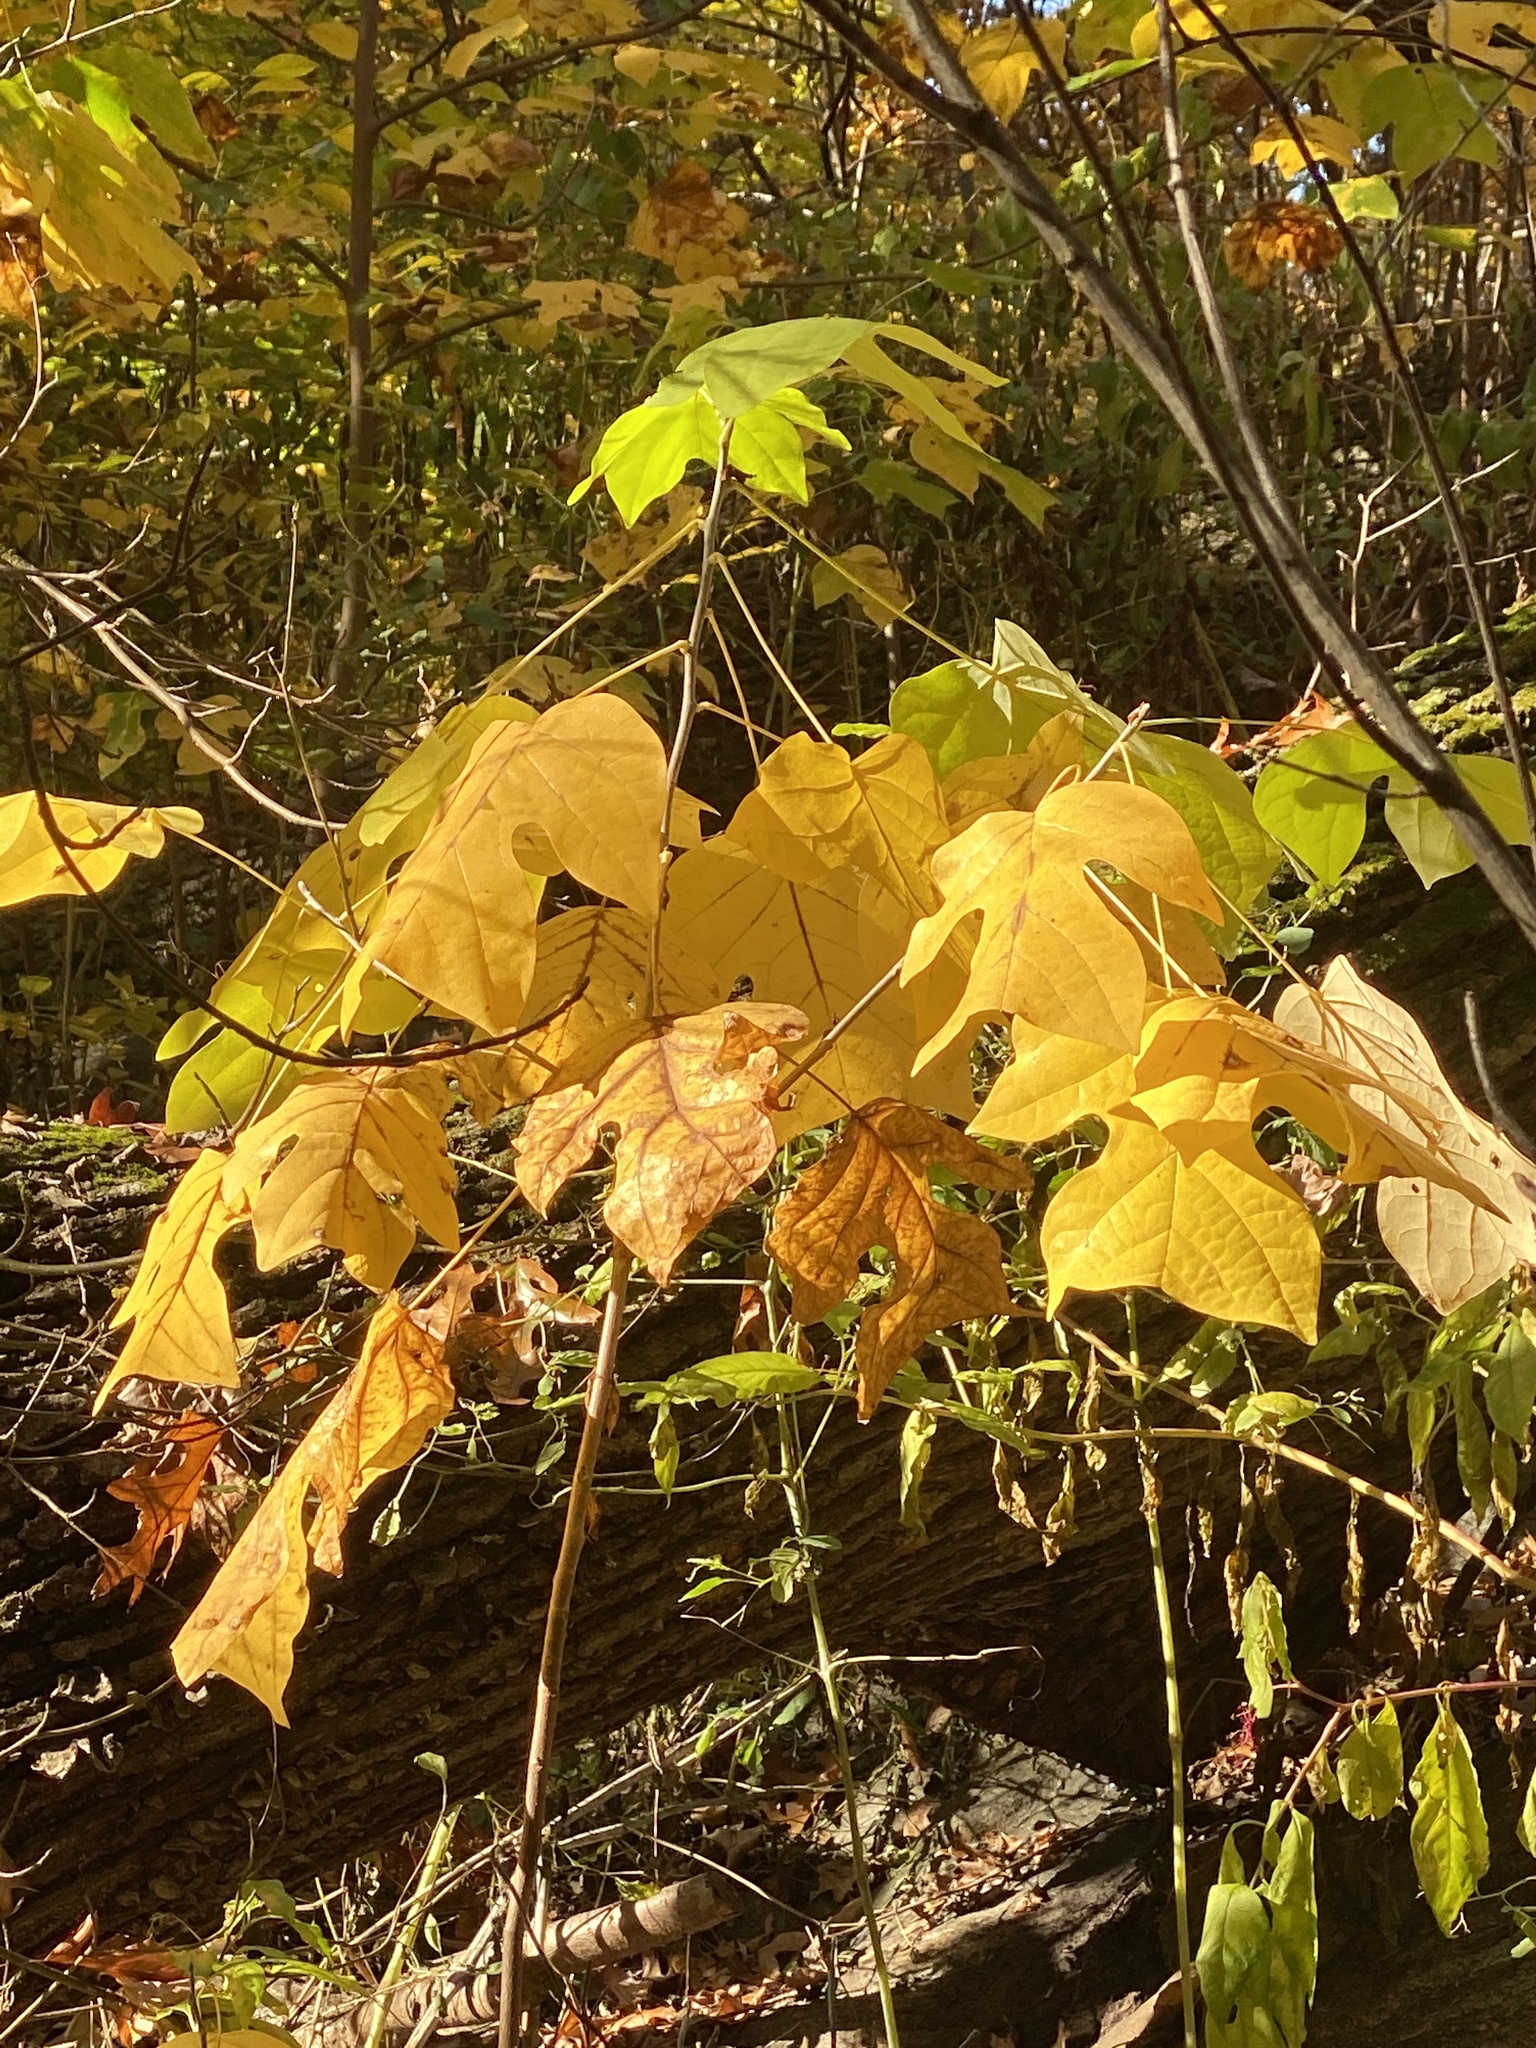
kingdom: Plantae
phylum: Tracheophyta
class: Magnoliopsida
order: Magnoliales
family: Magnoliaceae
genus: Liriodendron
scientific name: Liriodendron tulipifera
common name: Tulip tree
